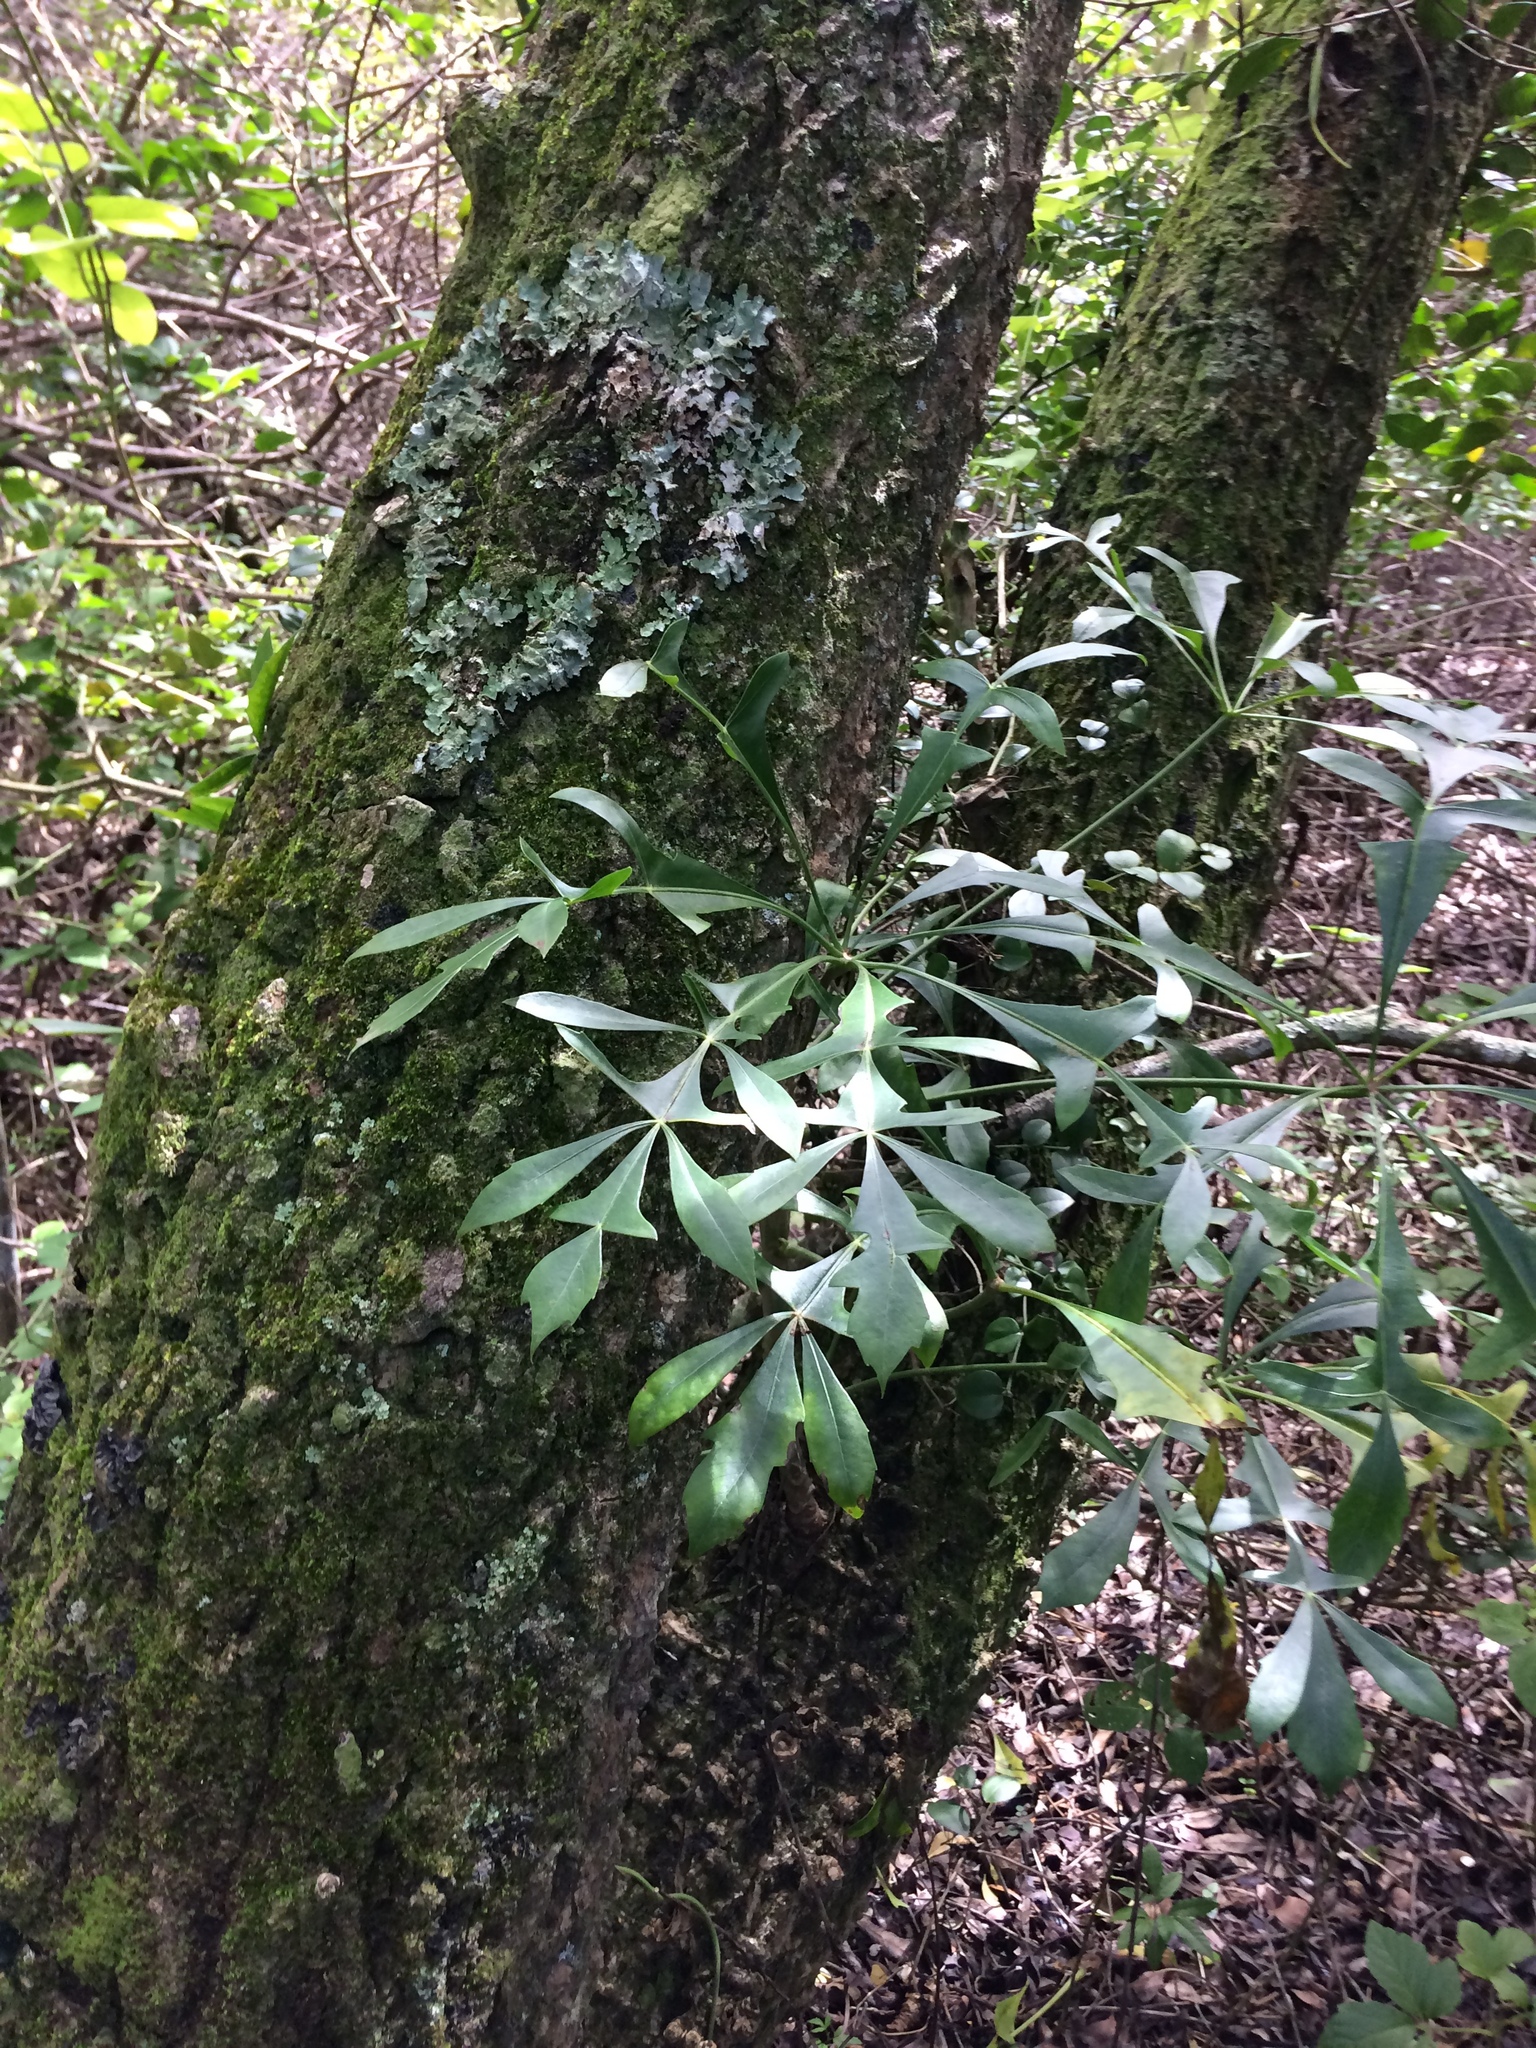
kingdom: Plantae
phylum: Tracheophyta
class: Magnoliopsida
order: Apiales
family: Araliaceae
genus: Cussonia
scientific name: Cussonia sphaerocephala
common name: Forest cabbage-tree
